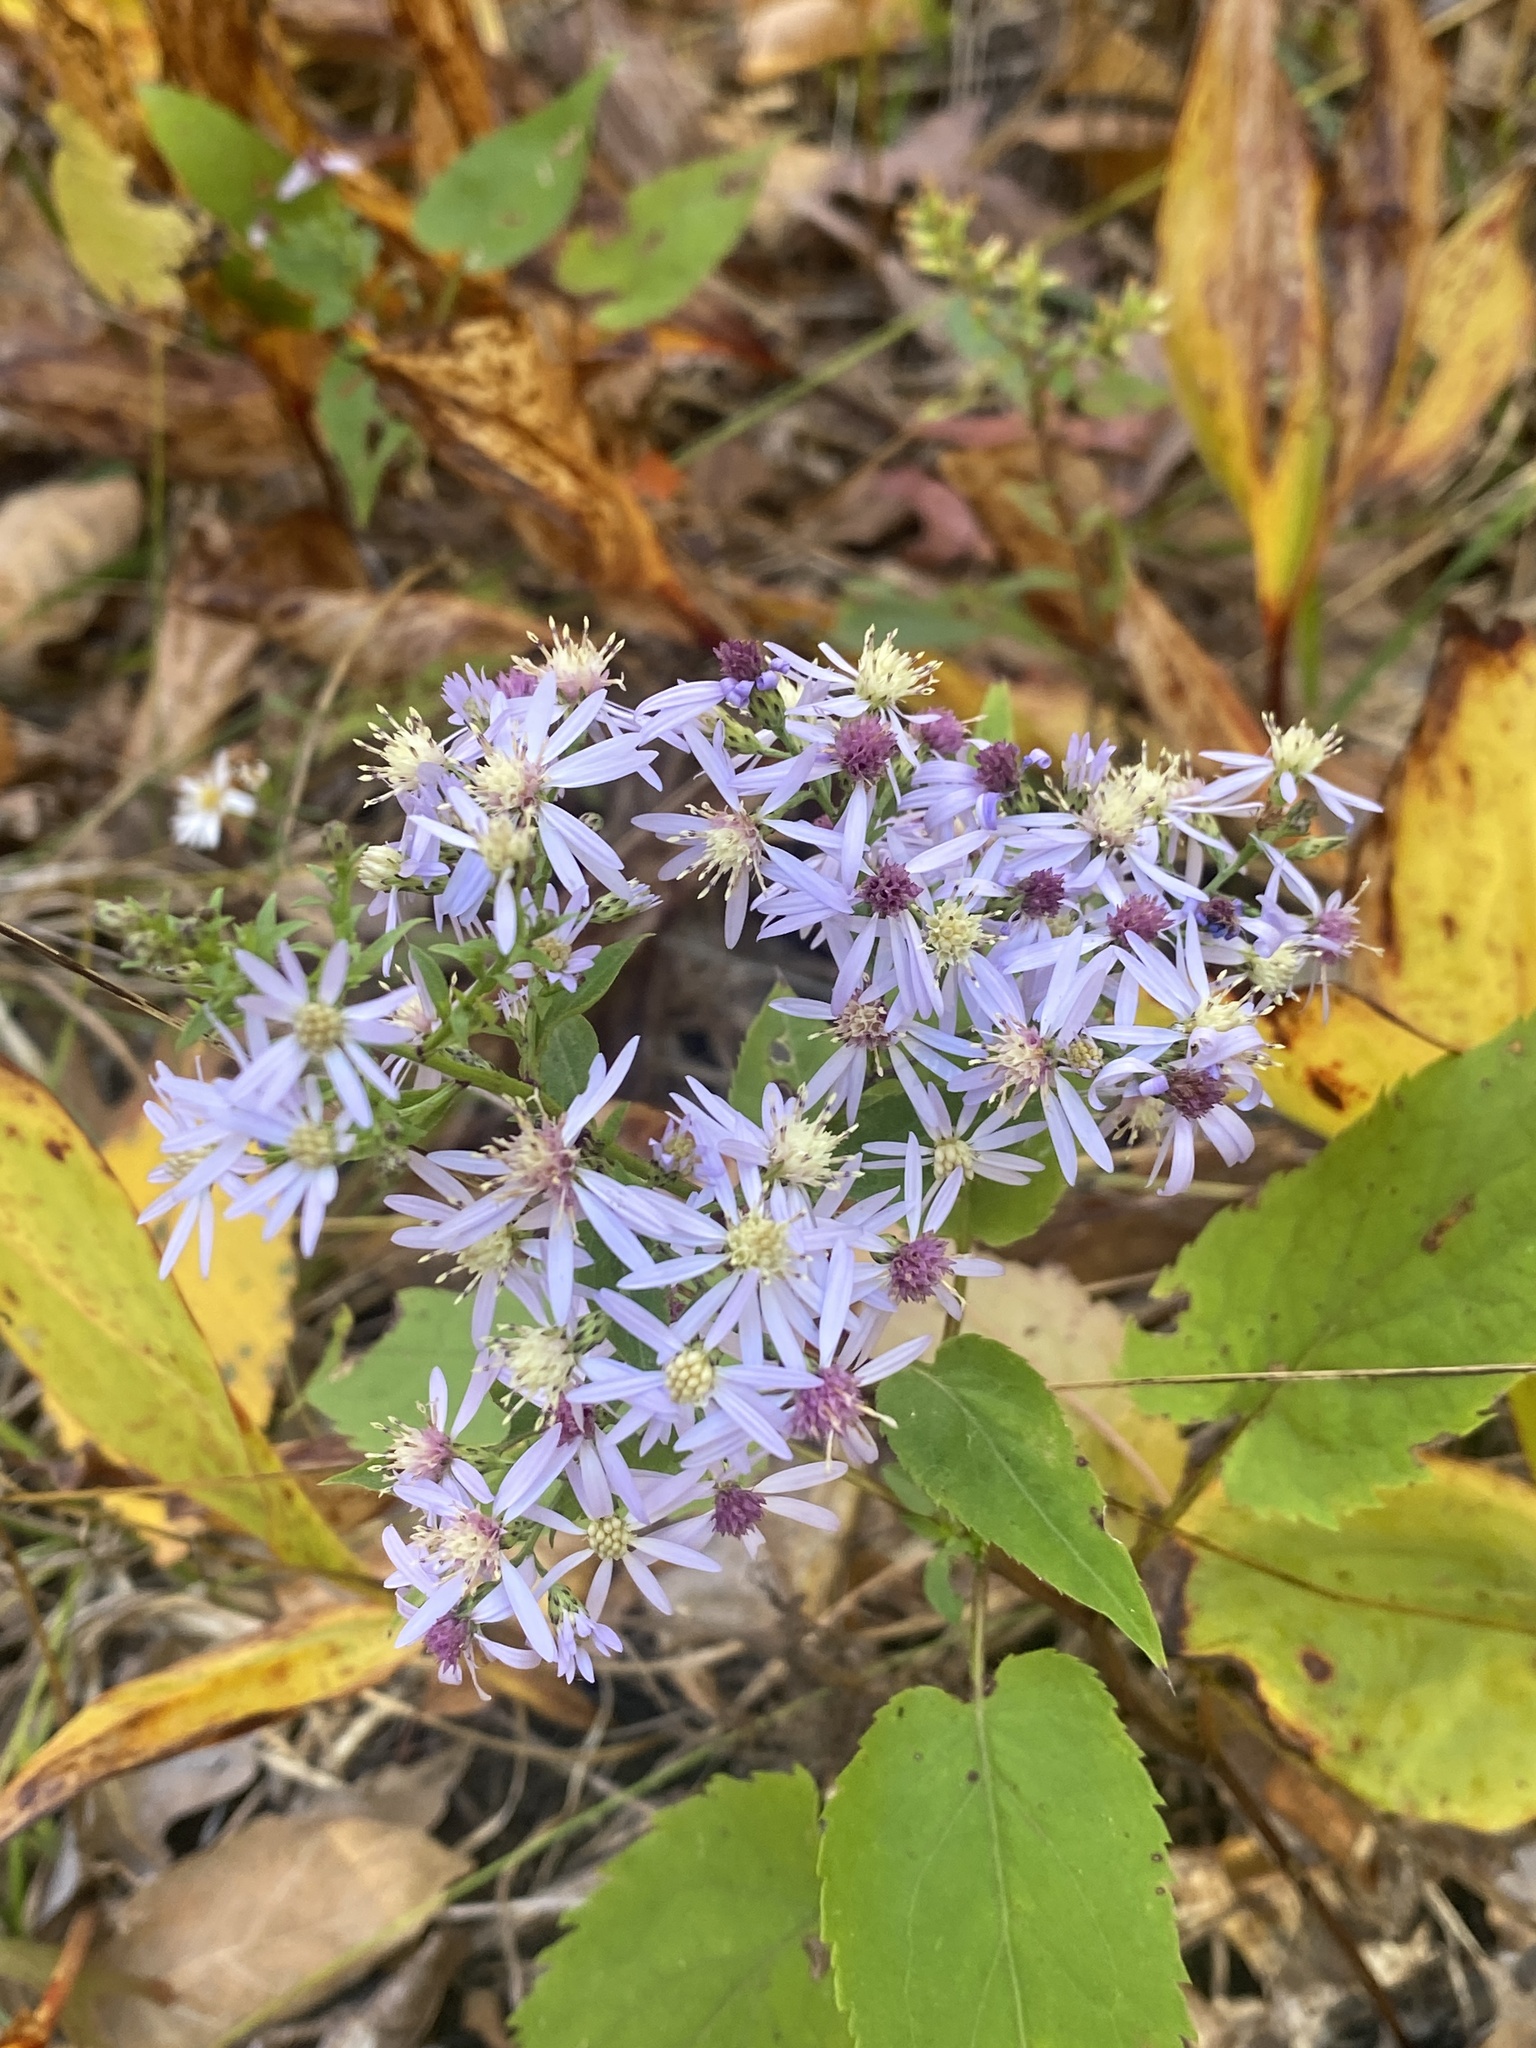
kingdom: Plantae
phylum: Tracheophyta
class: Magnoliopsida
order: Asterales
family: Asteraceae
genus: Symphyotrichum
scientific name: Symphyotrichum cordifolium
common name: Beeweed
